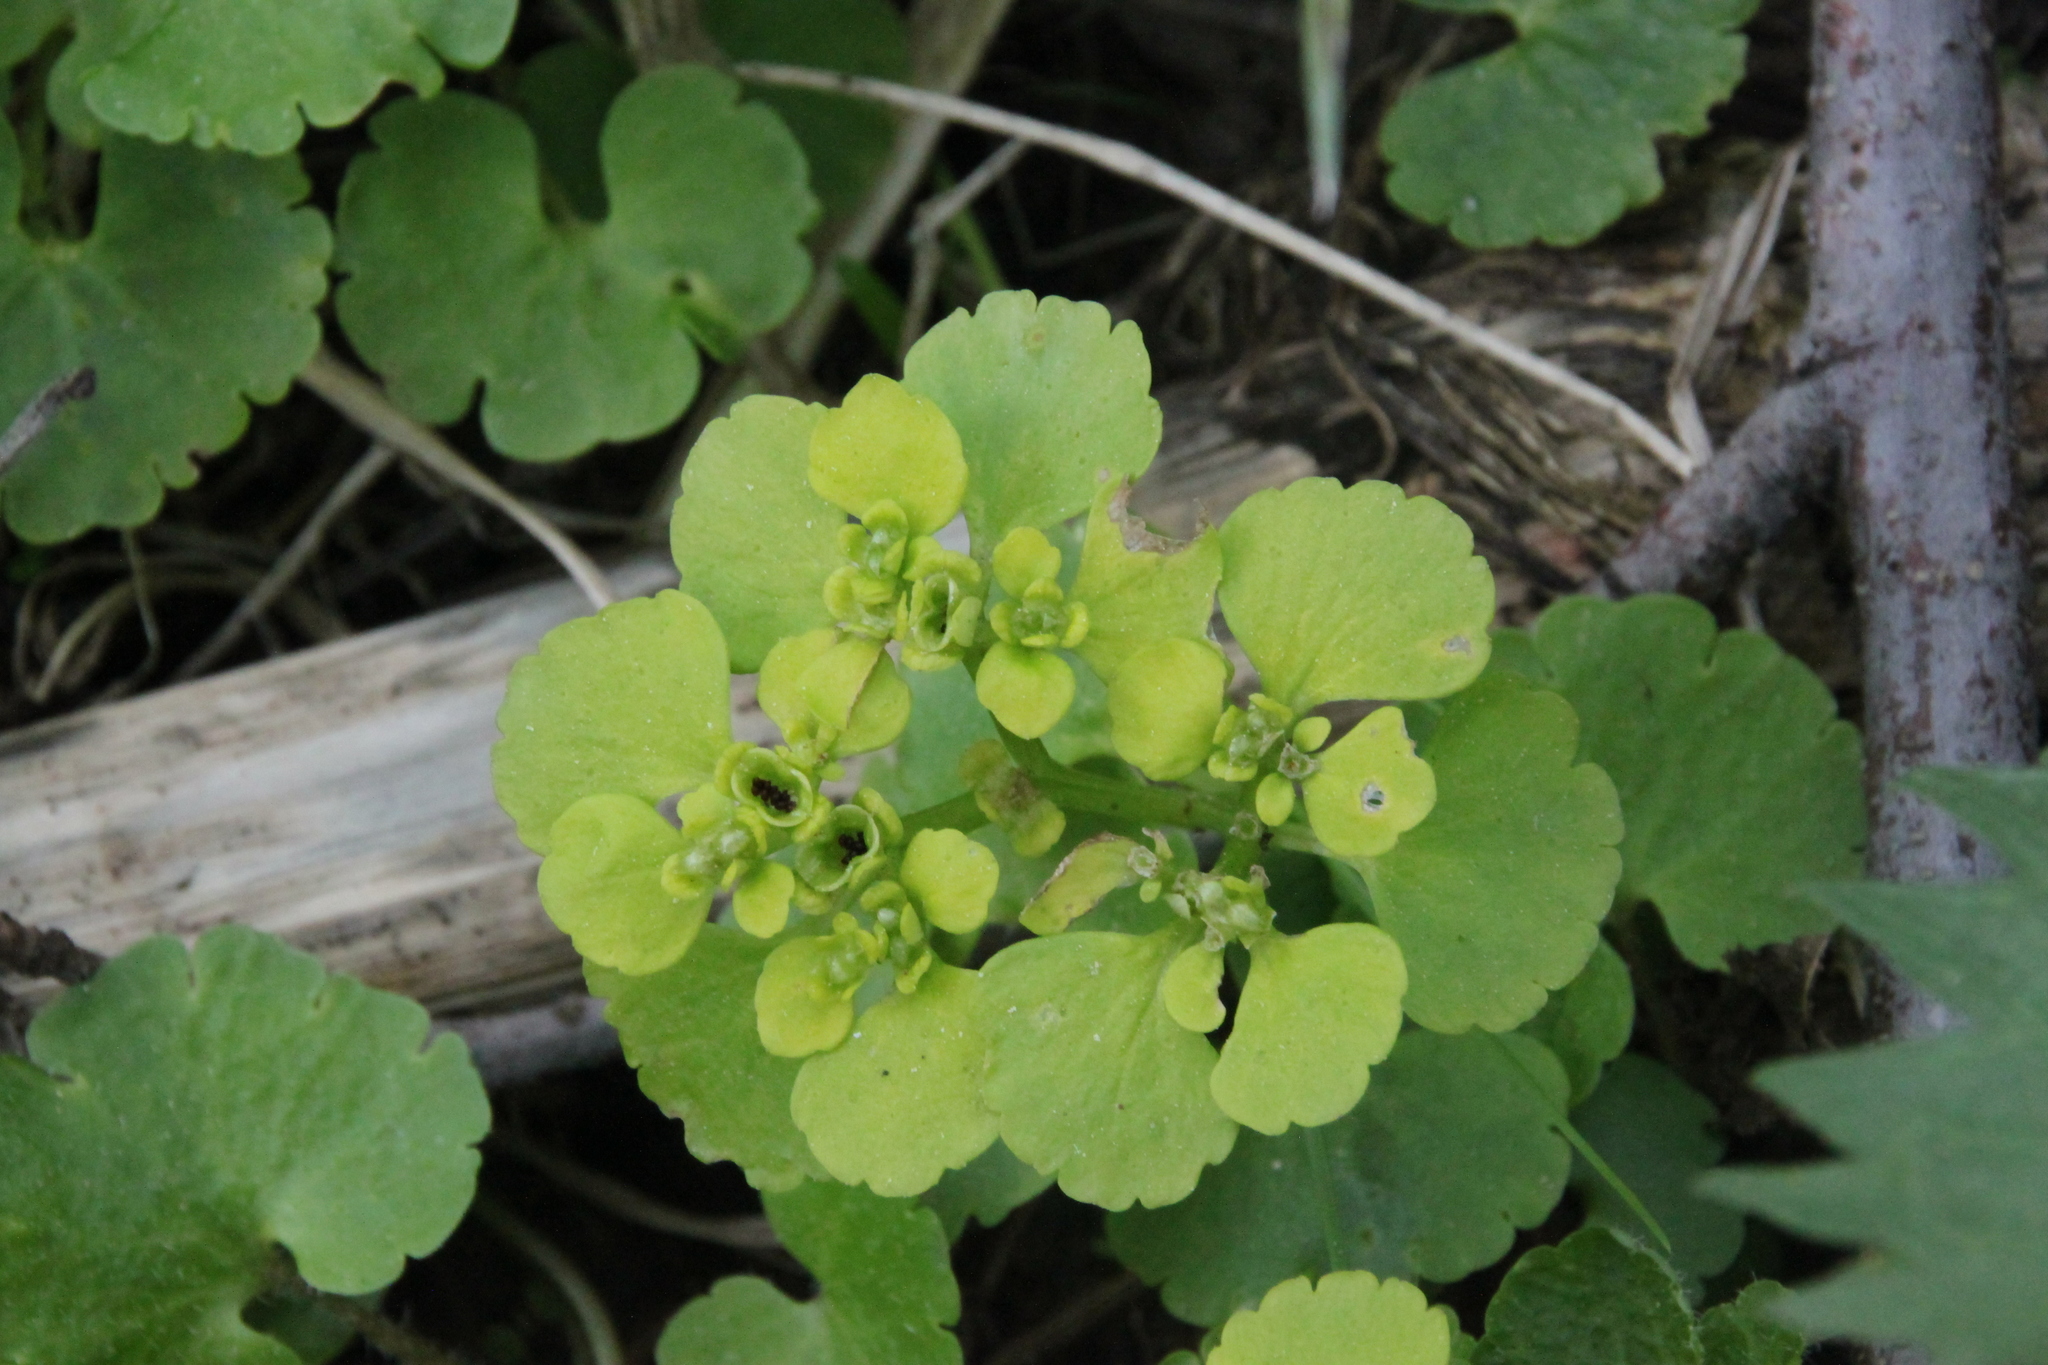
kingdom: Plantae
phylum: Tracheophyta
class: Magnoliopsida
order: Saxifragales
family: Saxifragaceae
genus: Chrysosplenium
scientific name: Chrysosplenium alternifolium
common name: Alternate-leaved golden-saxifrage
